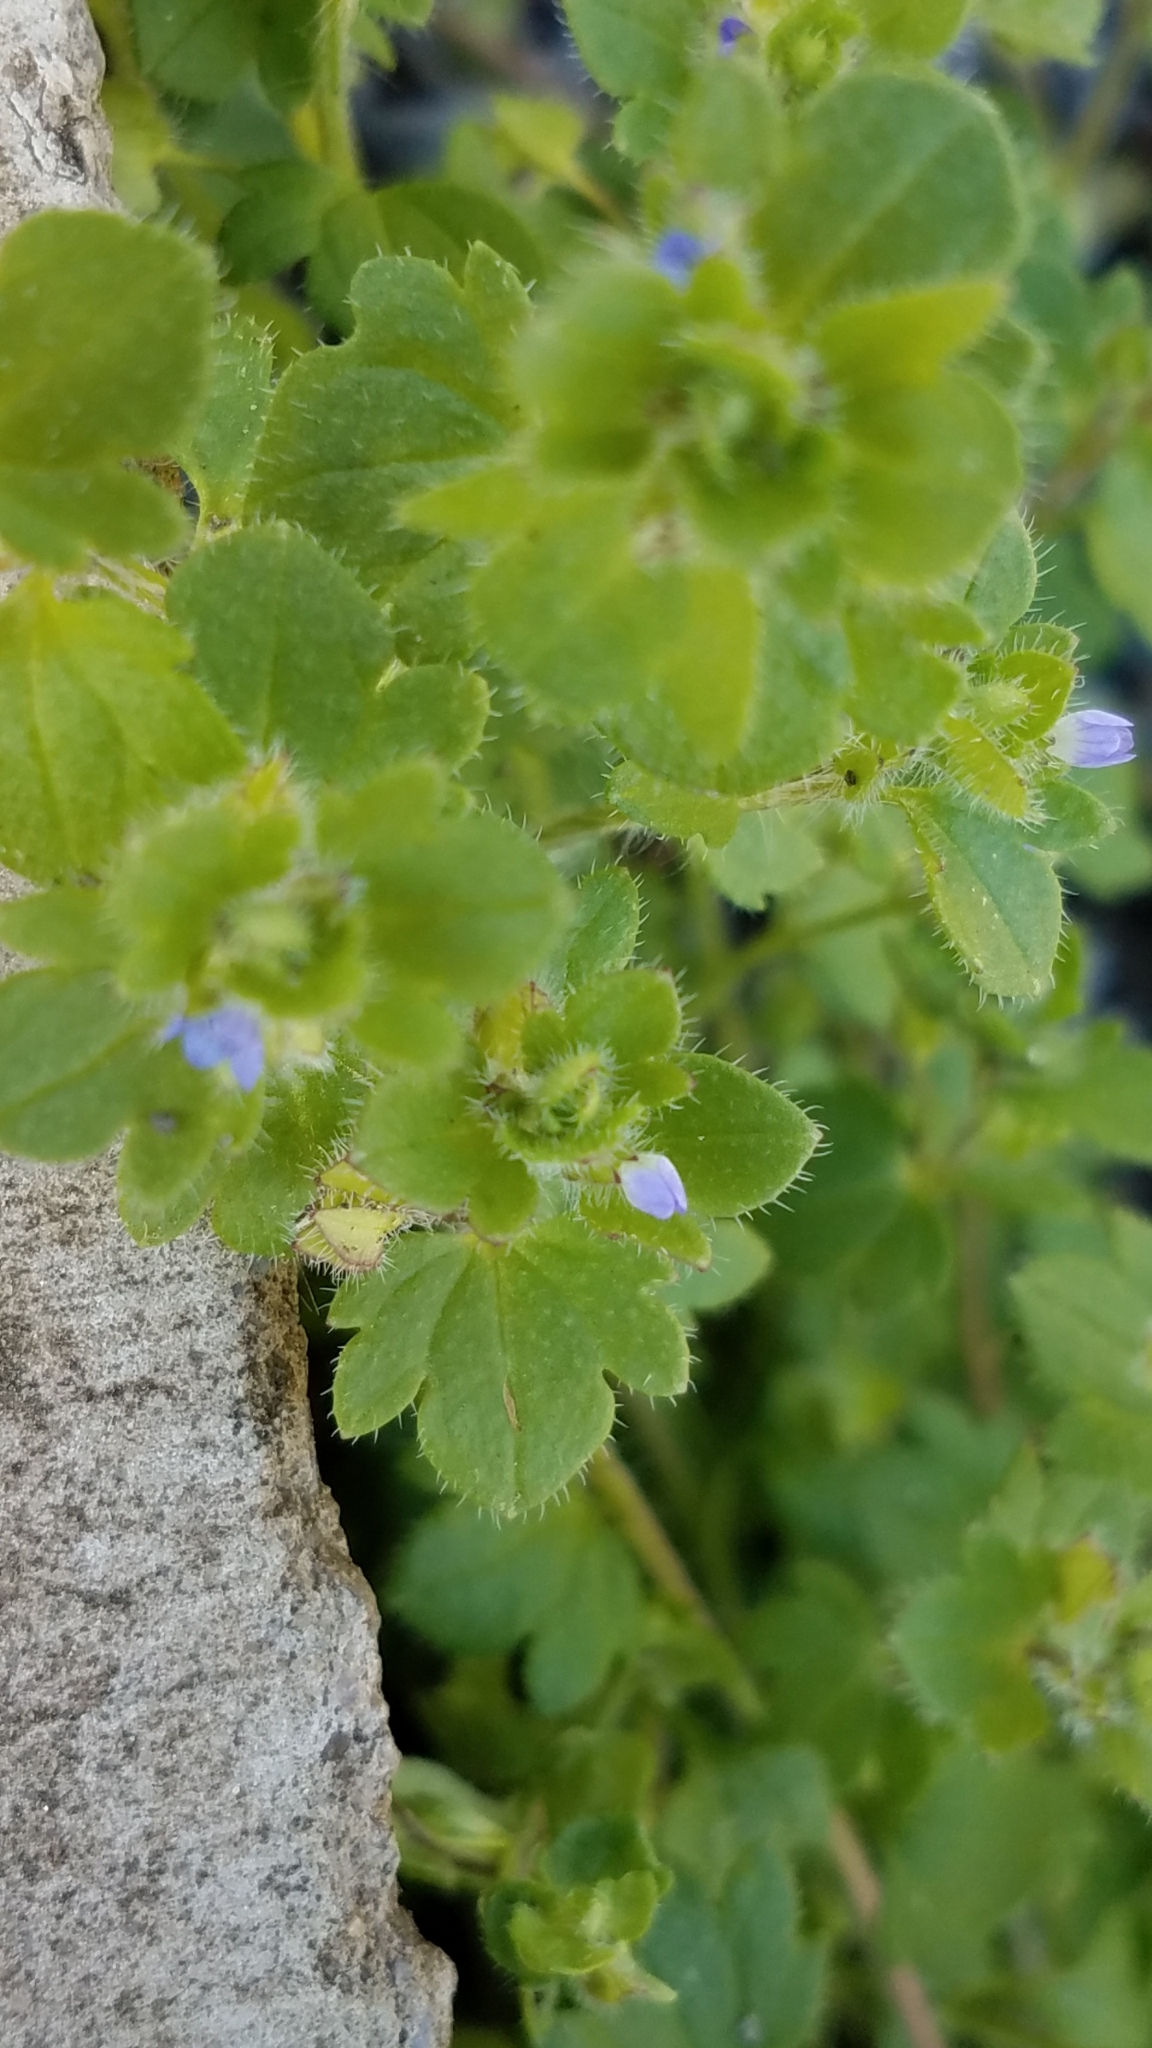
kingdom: Plantae
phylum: Tracheophyta
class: Magnoliopsida
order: Lamiales
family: Plantaginaceae
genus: Veronica
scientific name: Veronica hederifolia
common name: Ivy-leaved speedwell
